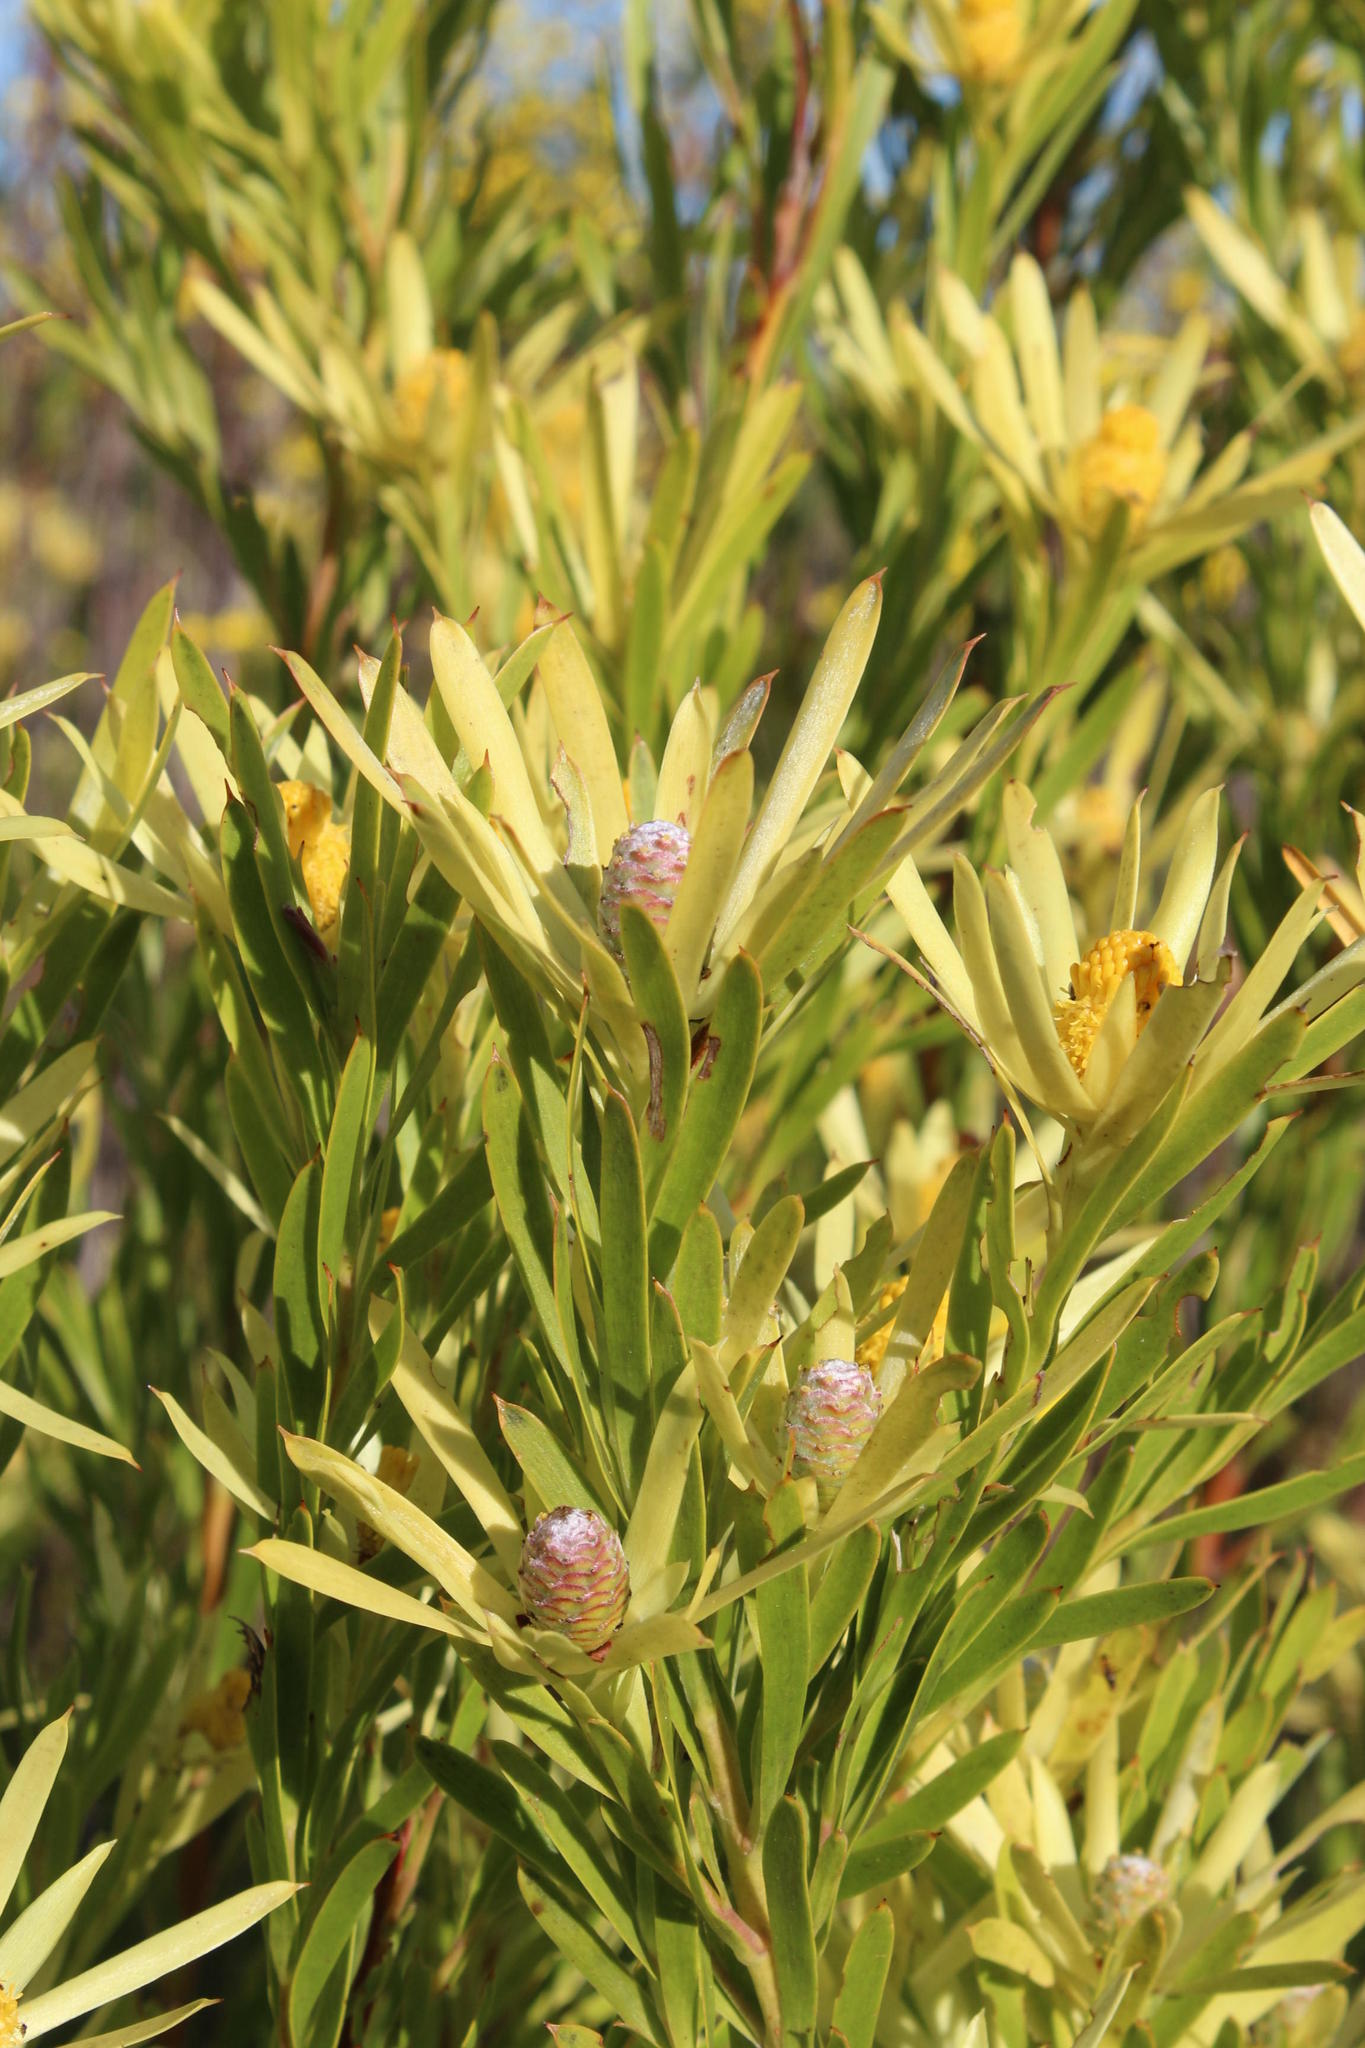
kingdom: Plantae
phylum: Tracheophyta
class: Magnoliopsida
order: Proteales
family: Proteaceae
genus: Leucadendron
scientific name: Leucadendron xanthoconus
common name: Sickle-leaf conebush
